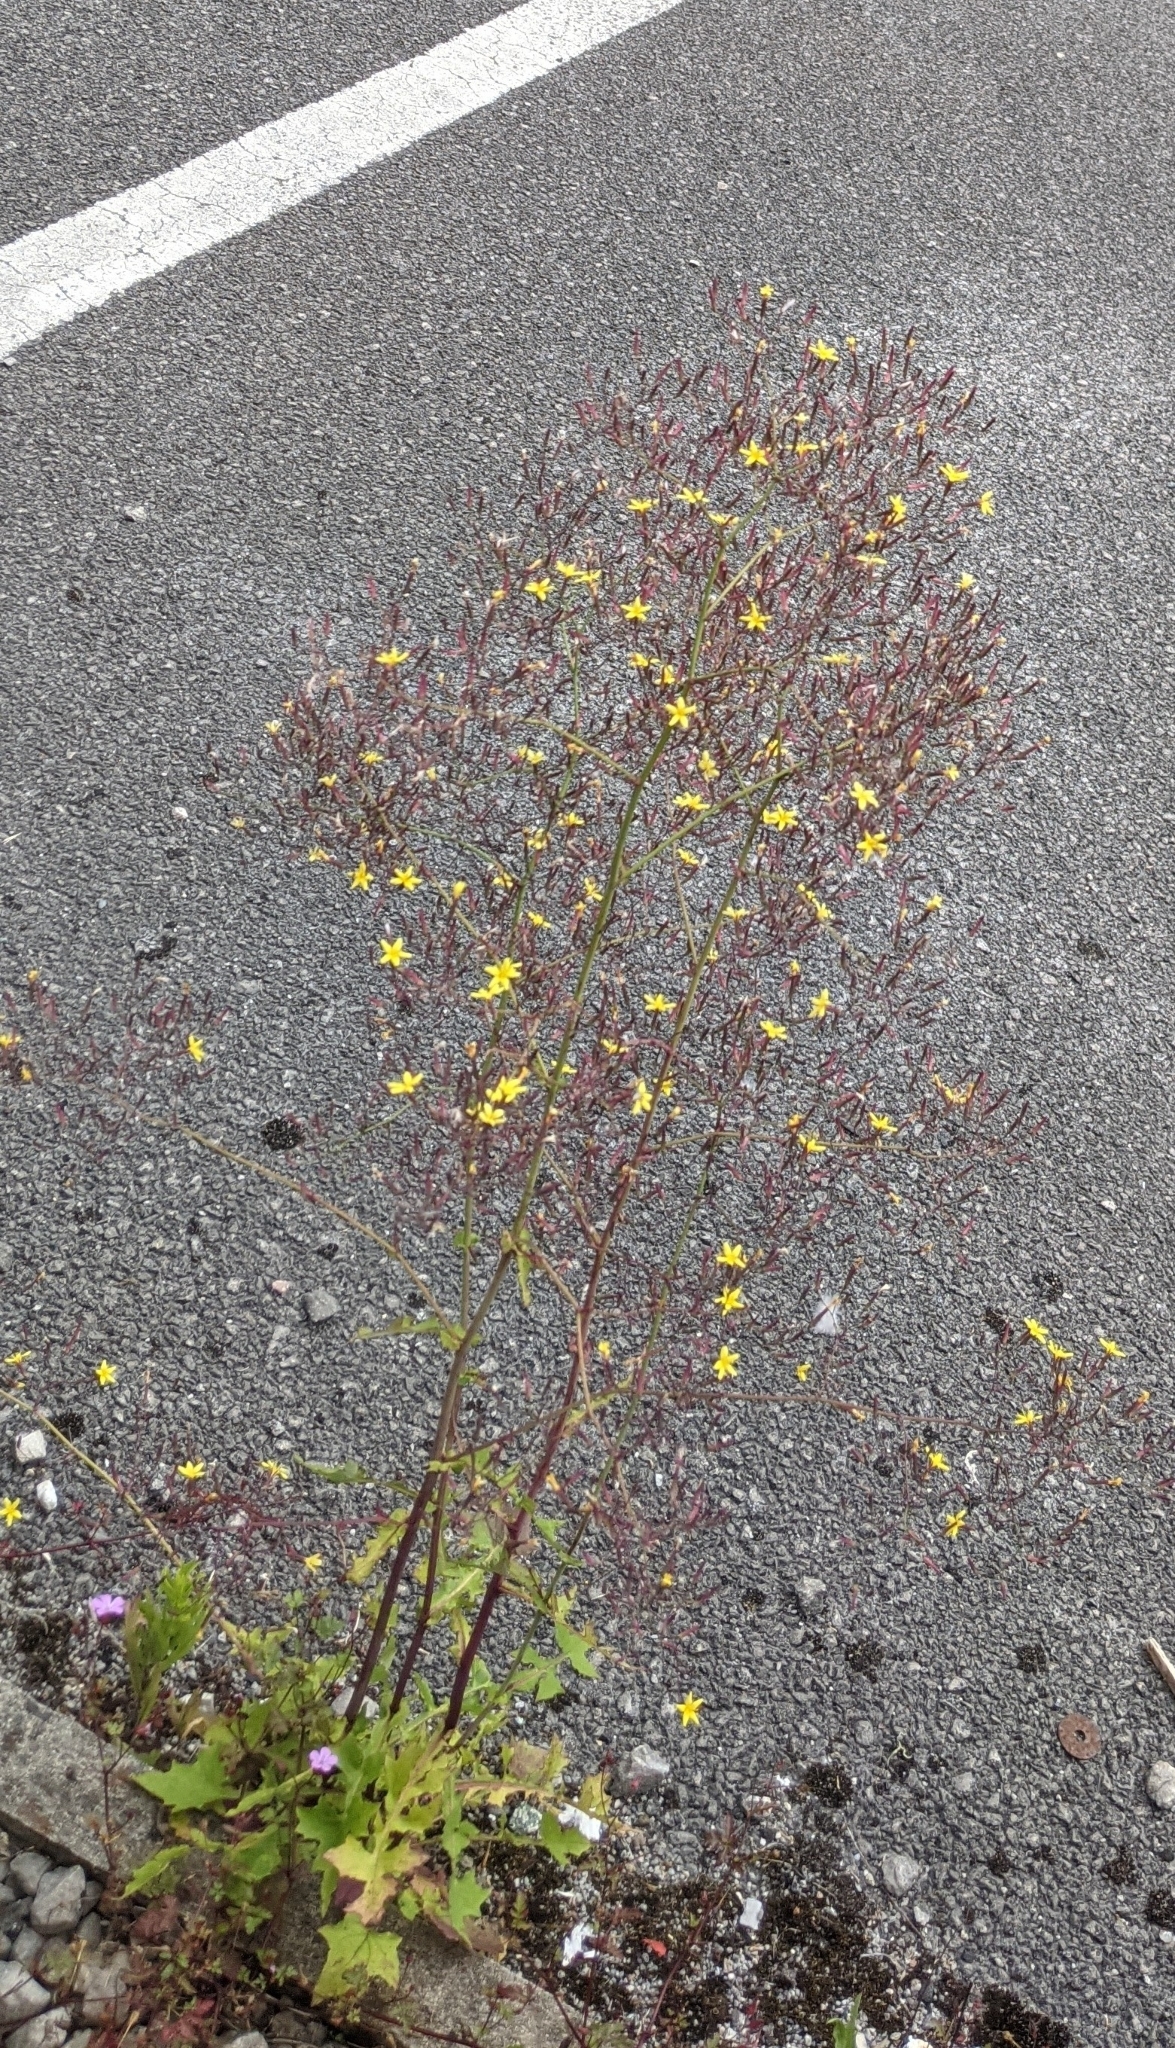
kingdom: Plantae
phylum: Tracheophyta
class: Magnoliopsida
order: Asterales
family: Asteraceae
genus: Mycelis
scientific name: Mycelis muralis
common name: Wall lettuce
